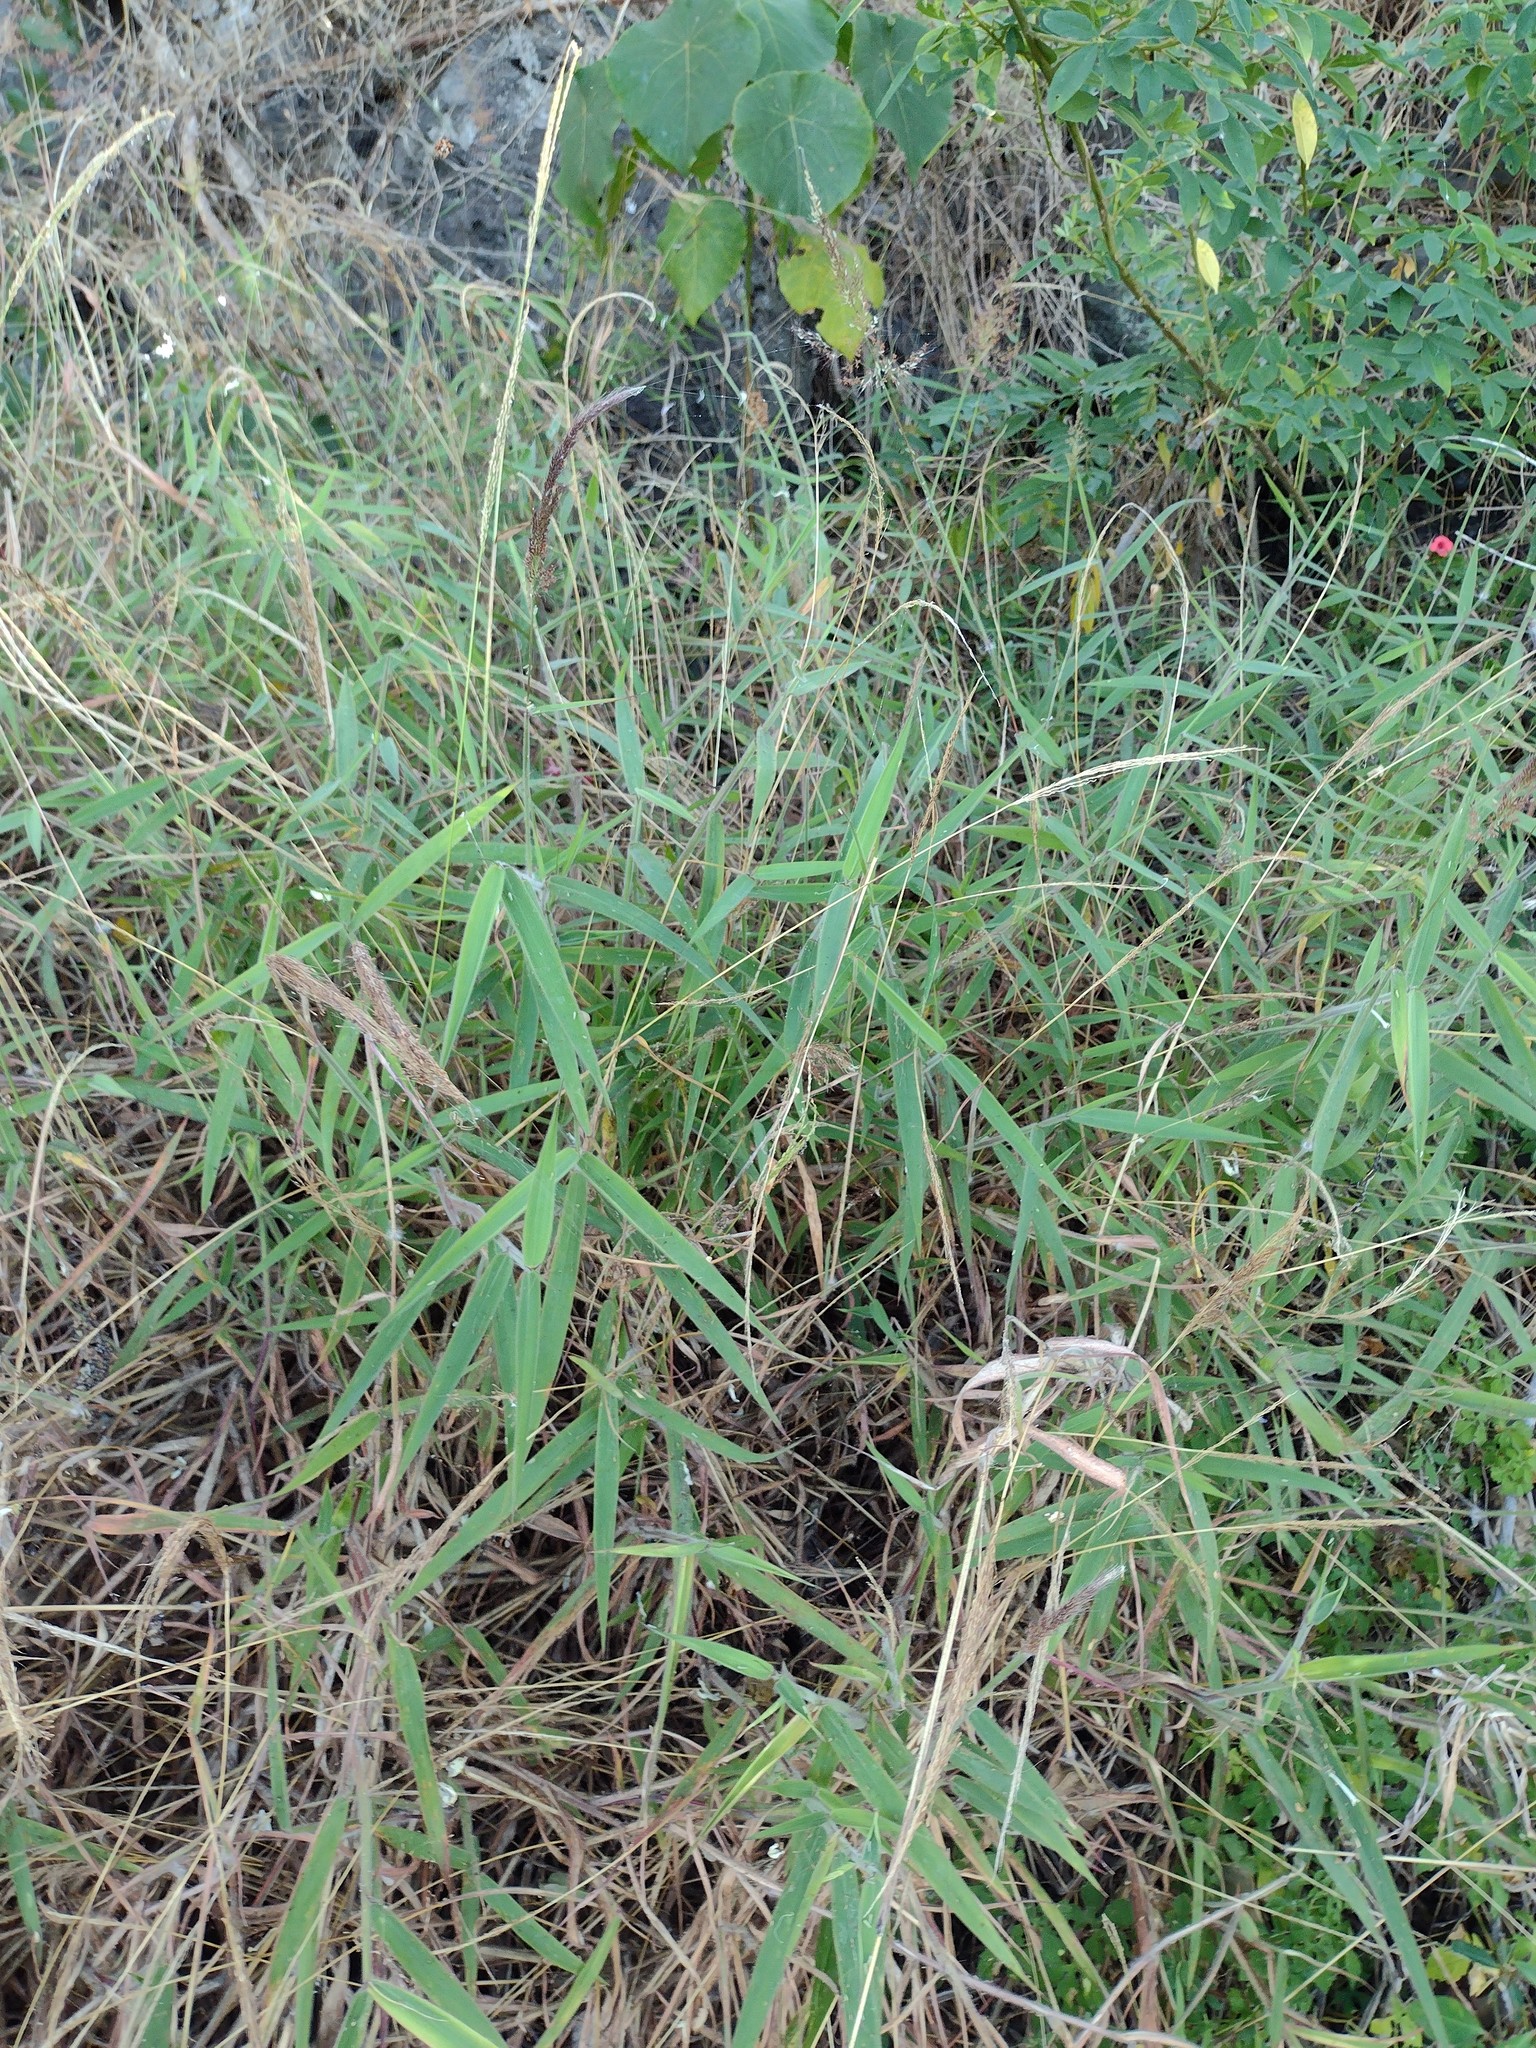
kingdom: Plantae
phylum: Tracheophyta
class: Liliopsida
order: Poales
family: Poaceae
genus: Melinis
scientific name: Melinis minutiflora
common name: Molassesgrass
